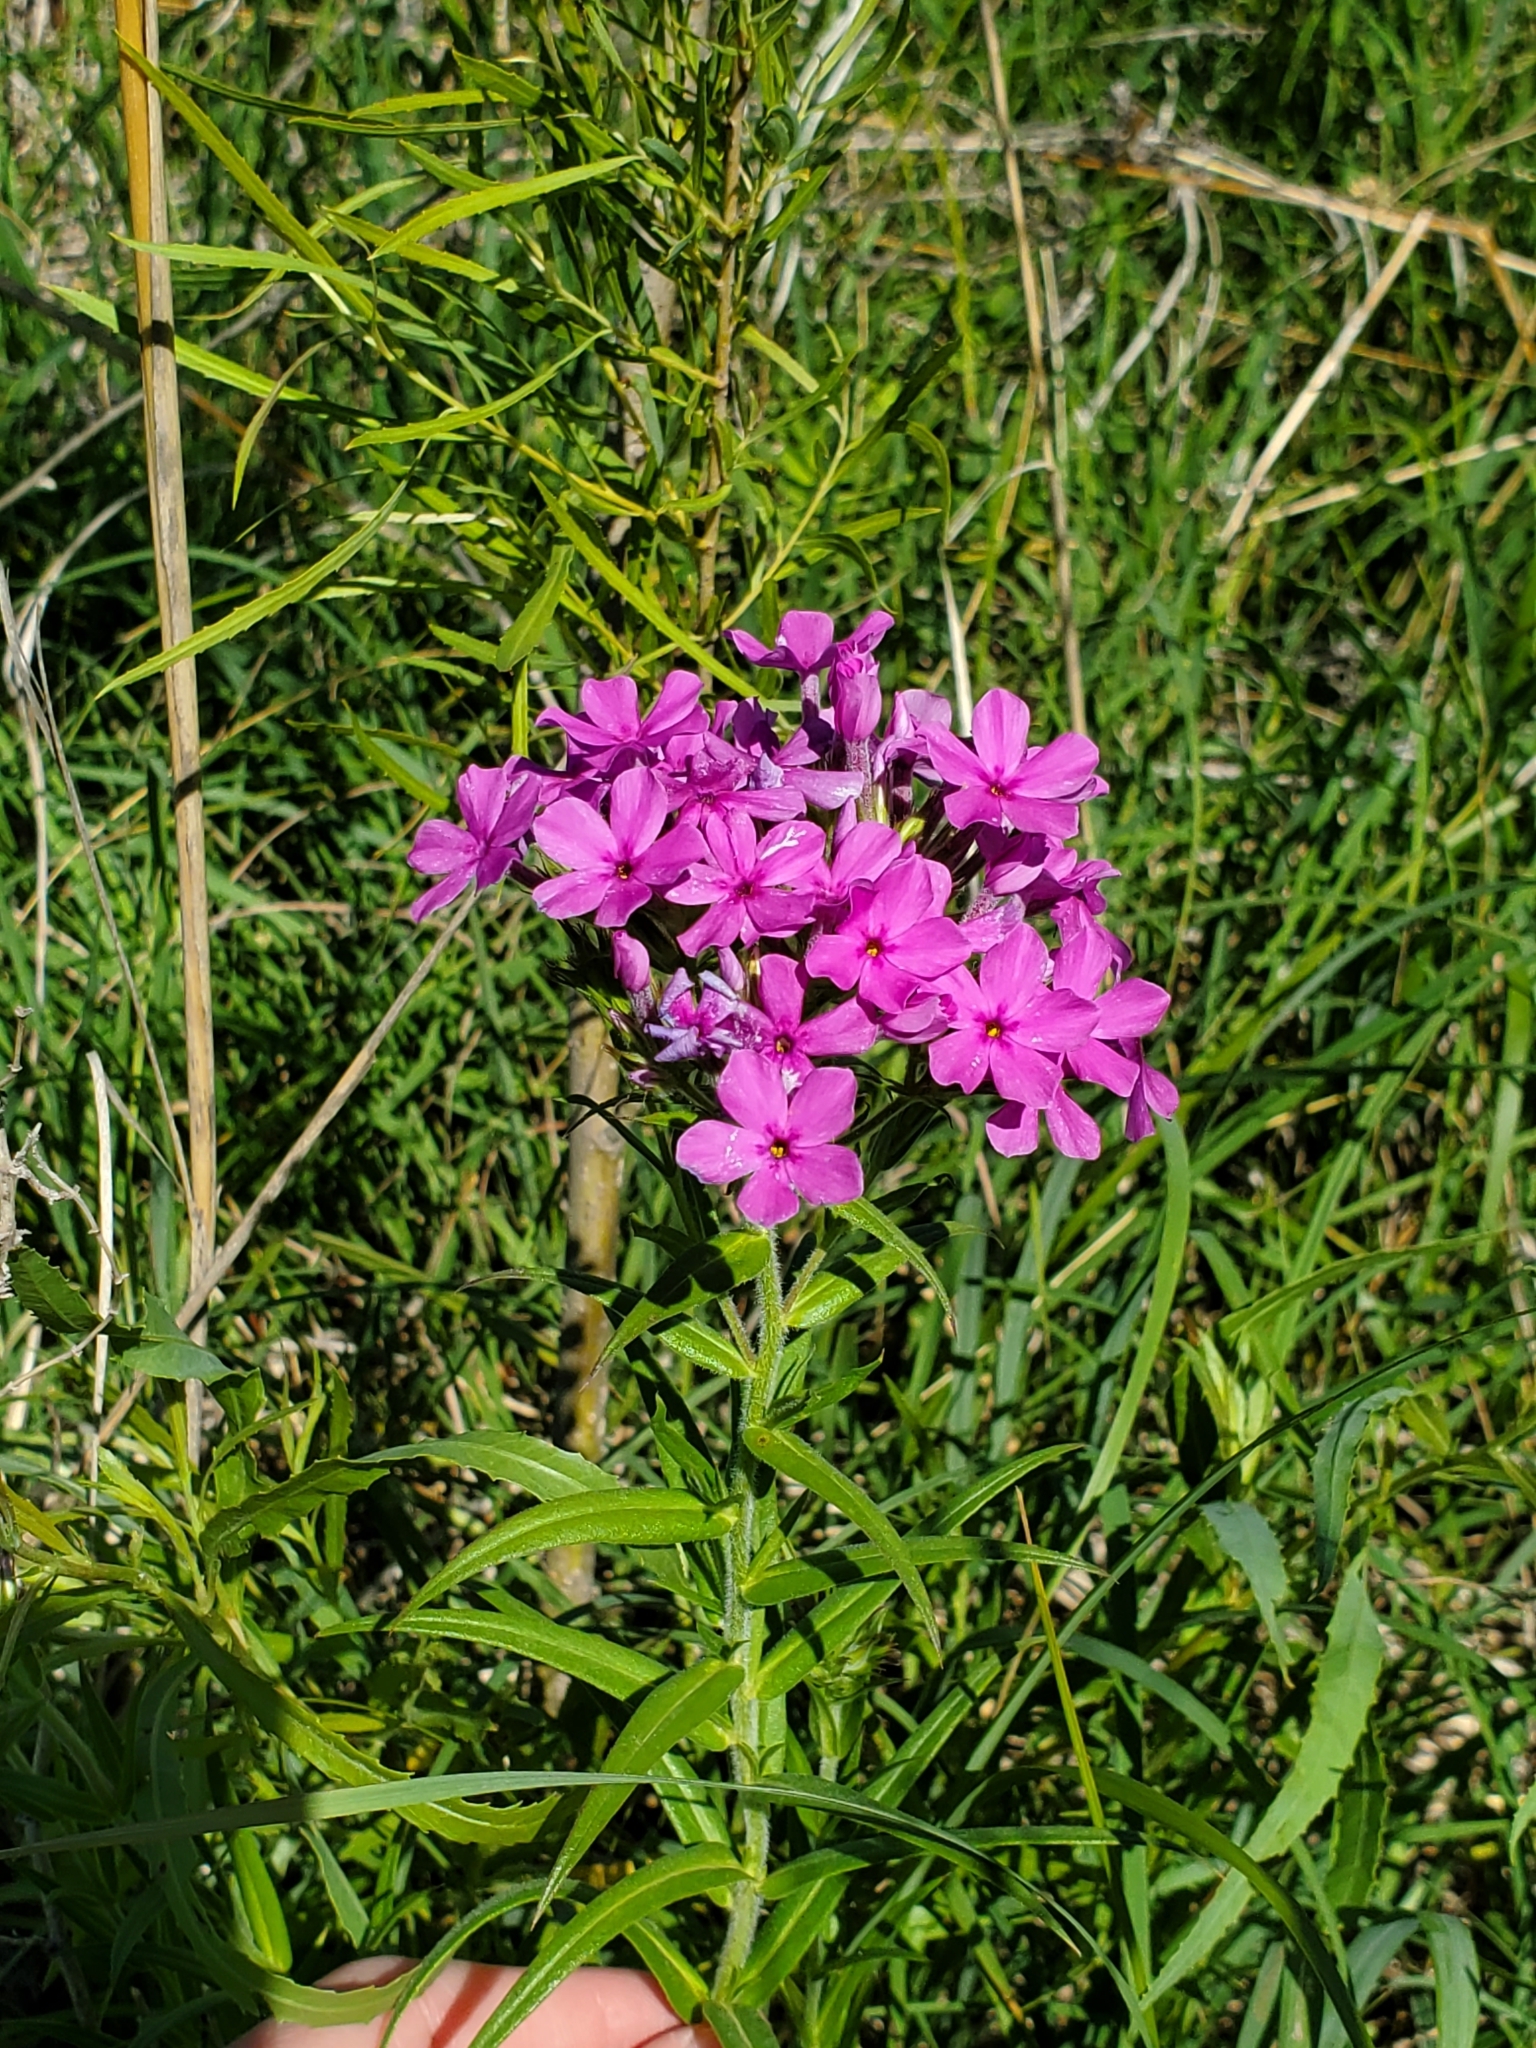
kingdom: Plantae
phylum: Tracheophyta
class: Magnoliopsida
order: Ericales
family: Polemoniaceae
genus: Phlox
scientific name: Phlox pilosa
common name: Prairie phlox
